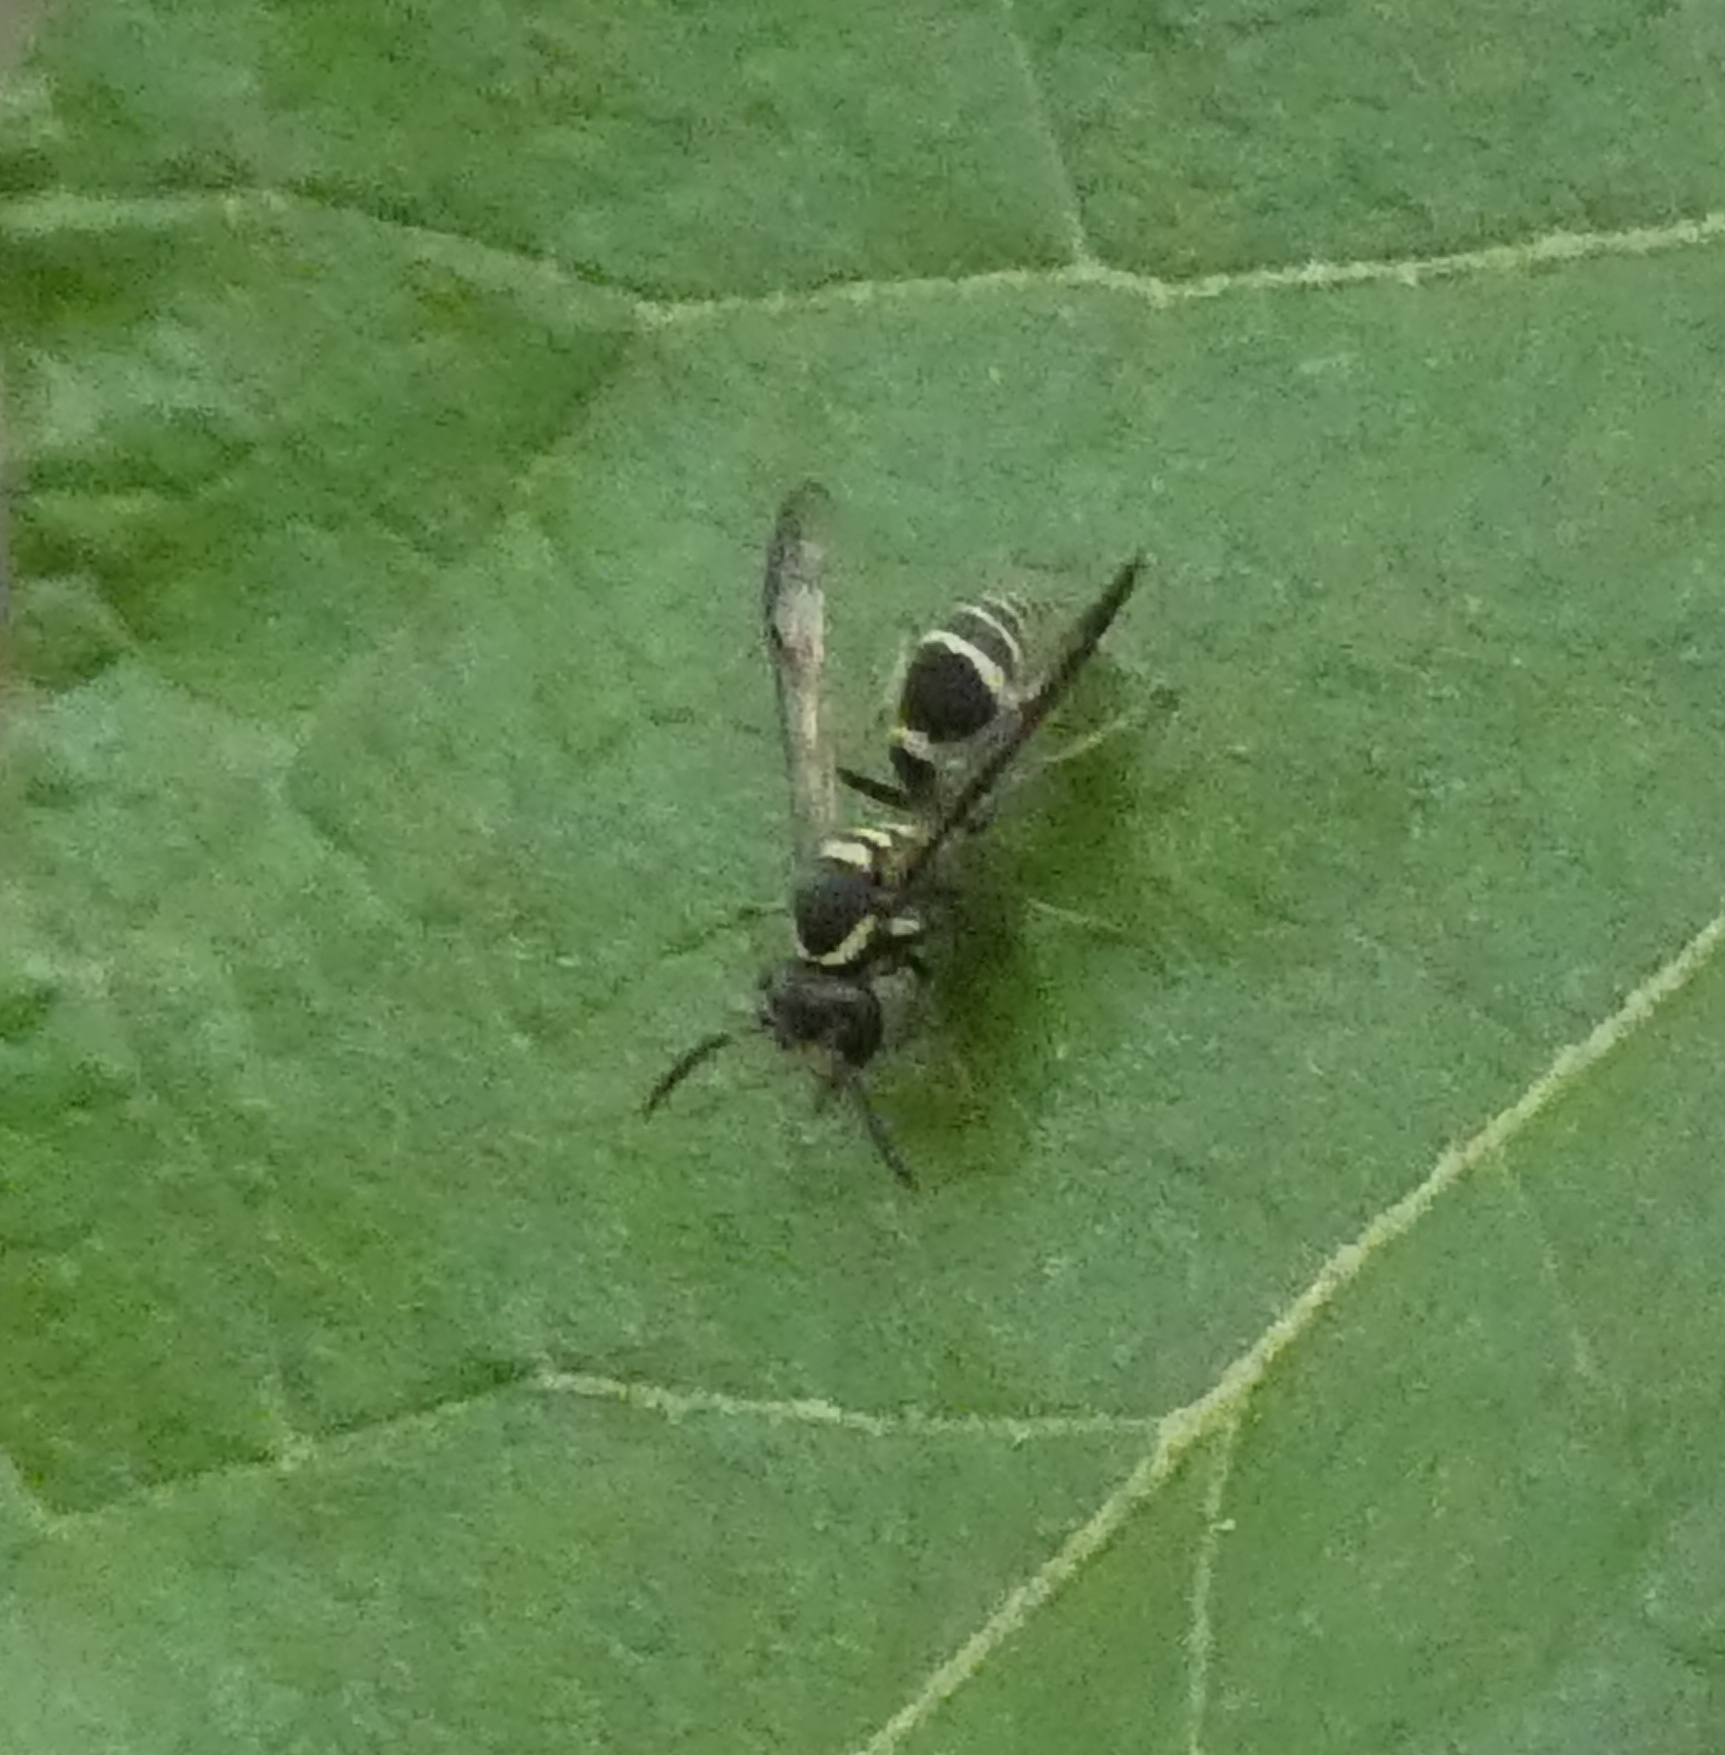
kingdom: Animalia
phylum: Arthropoda
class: Insecta
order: Hymenoptera
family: Eumenidae
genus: Polybia
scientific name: Polybia occidentalis
